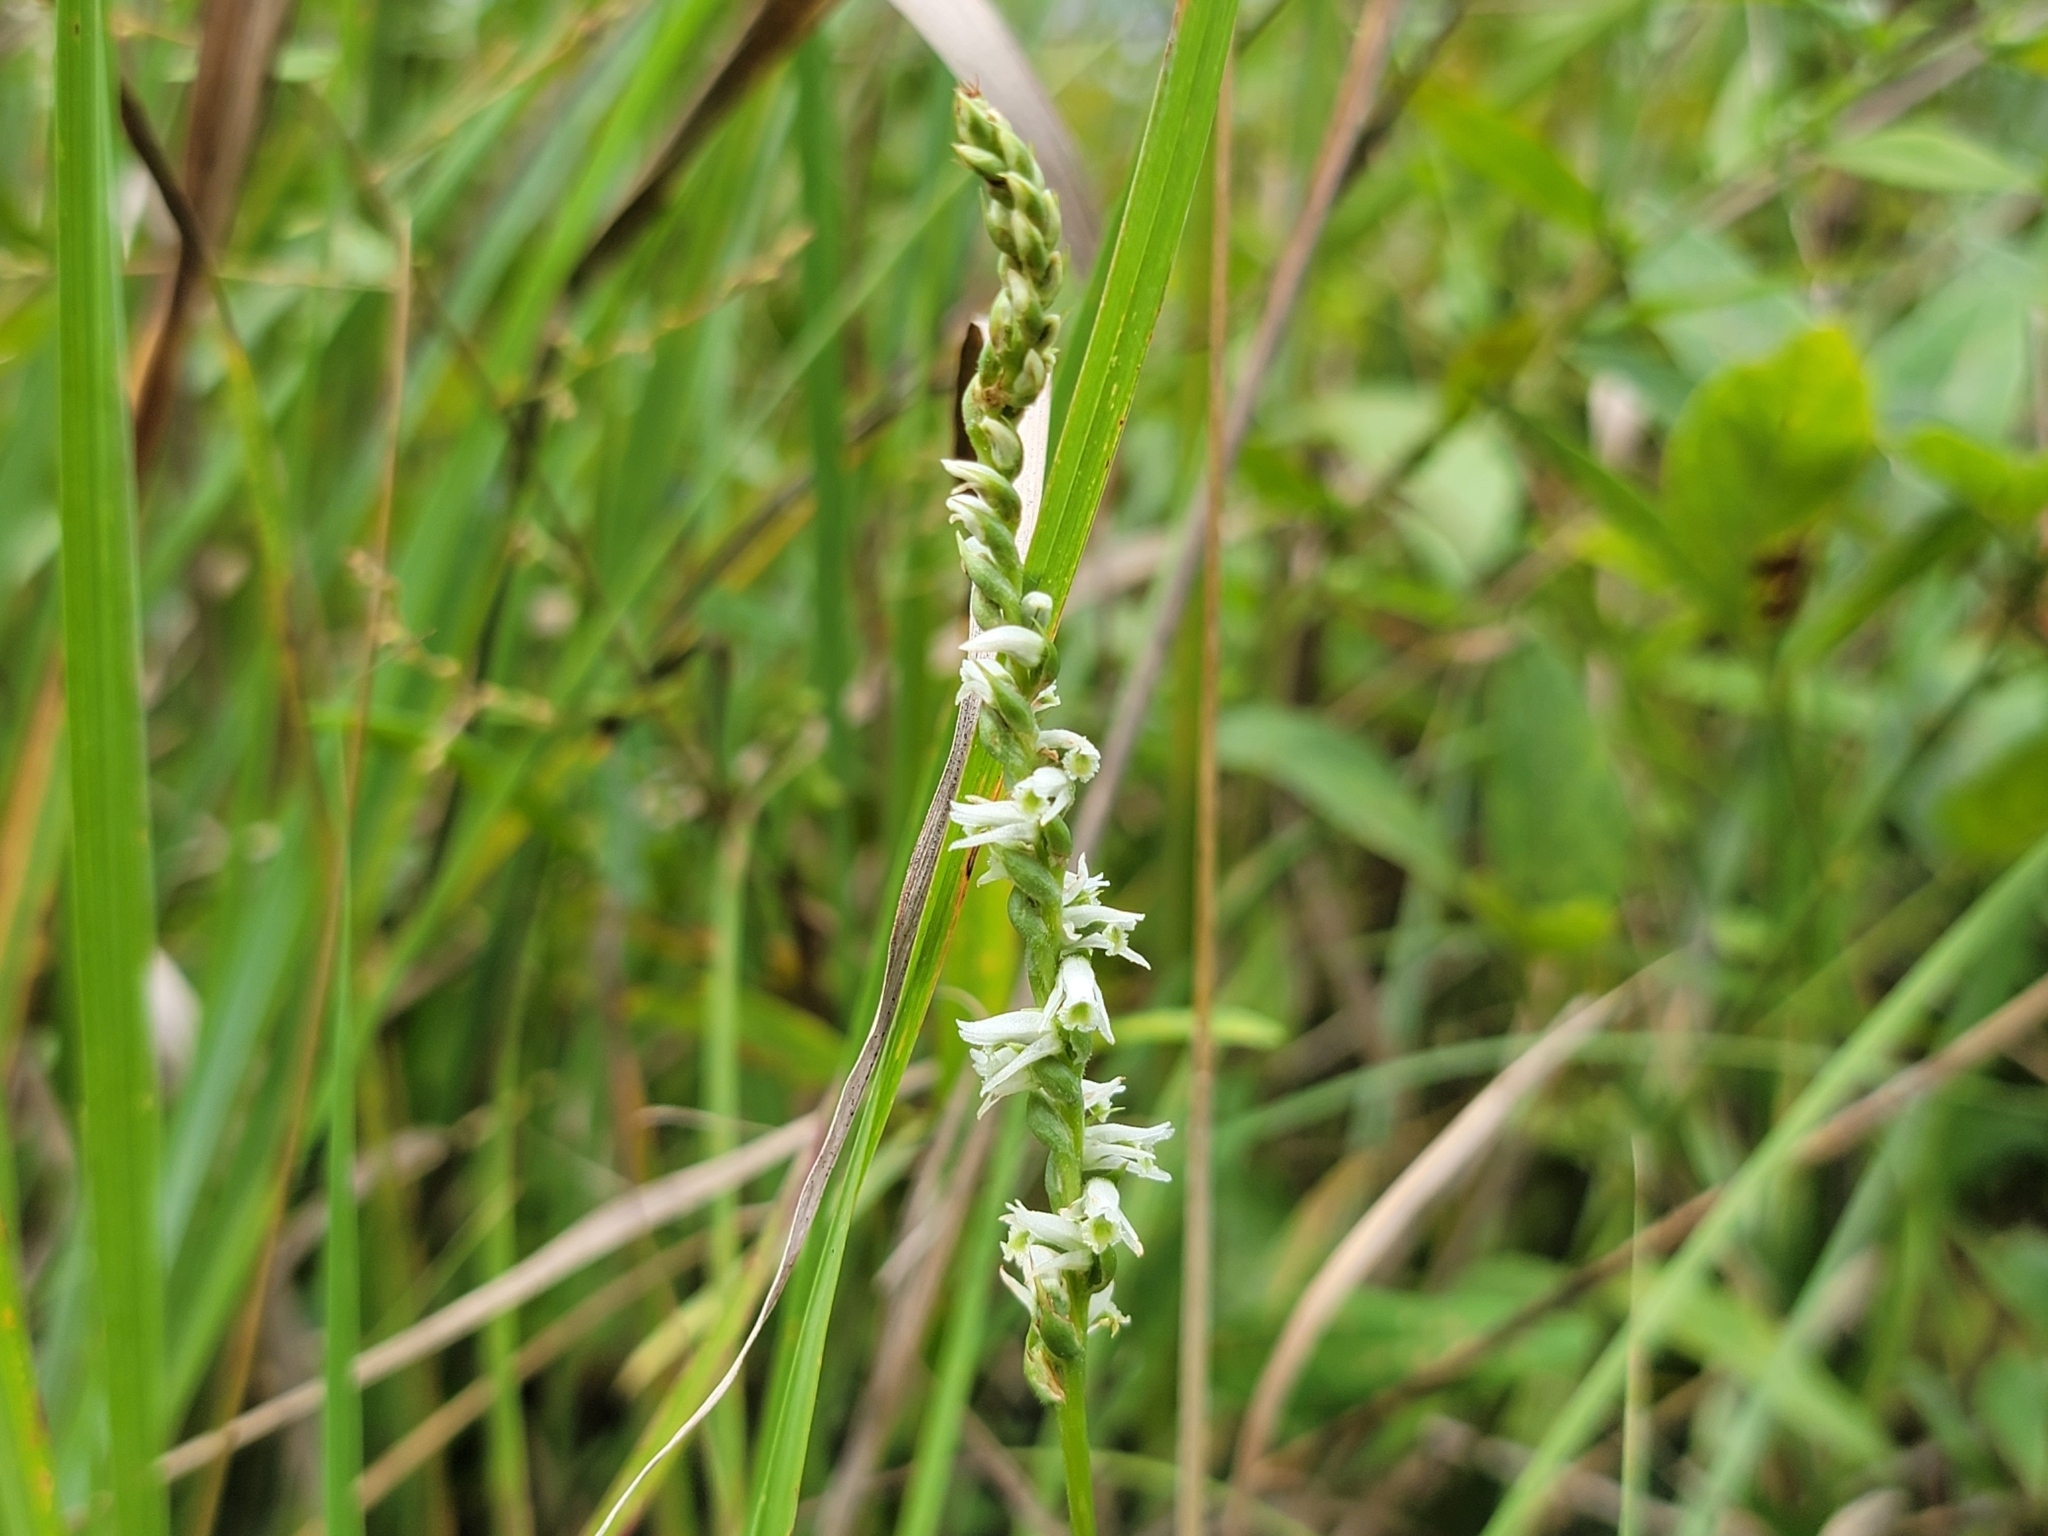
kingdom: Plantae
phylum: Tracheophyta
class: Liliopsida
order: Asparagales
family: Orchidaceae
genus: Spiranthes
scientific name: Spiranthes lacera
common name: Northern slender ladies'-tresses
